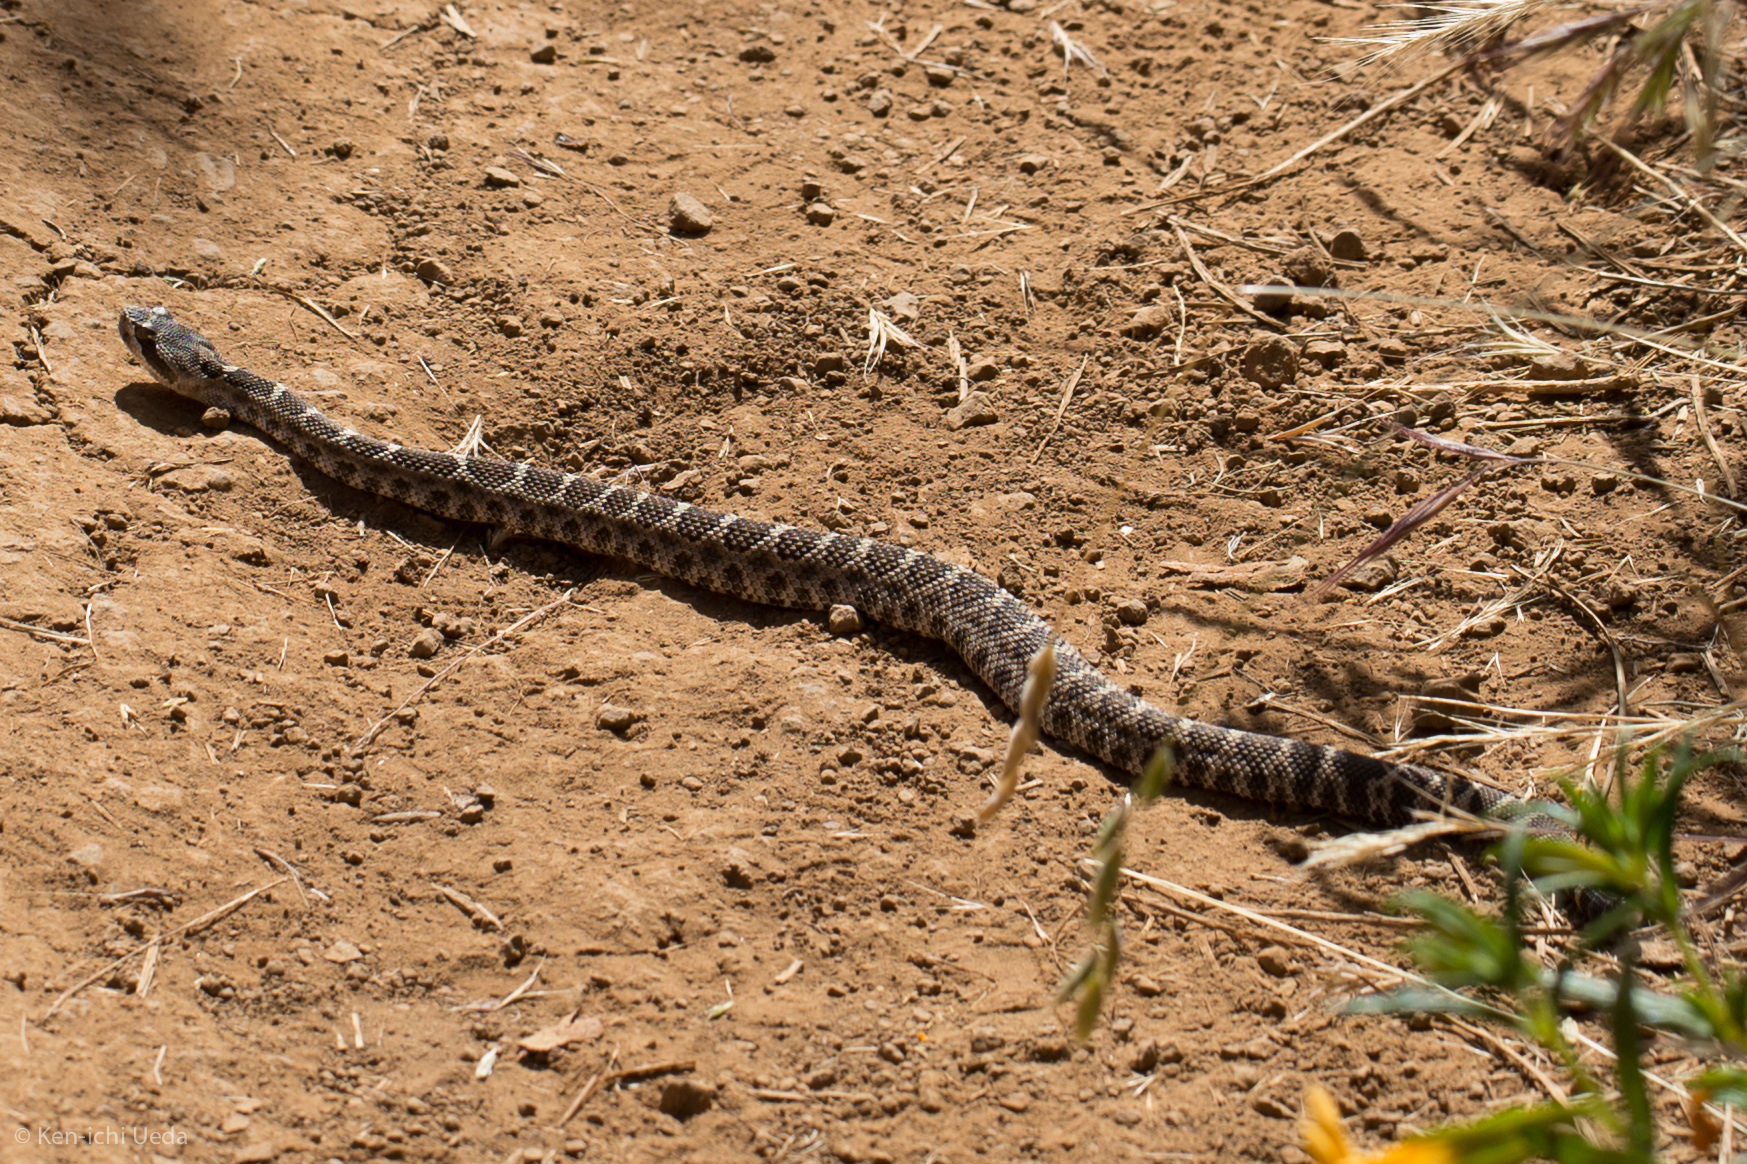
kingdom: Animalia
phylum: Chordata
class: Squamata
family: Viperidae
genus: Crotalus
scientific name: Crotalus oreganus
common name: Abyssus
